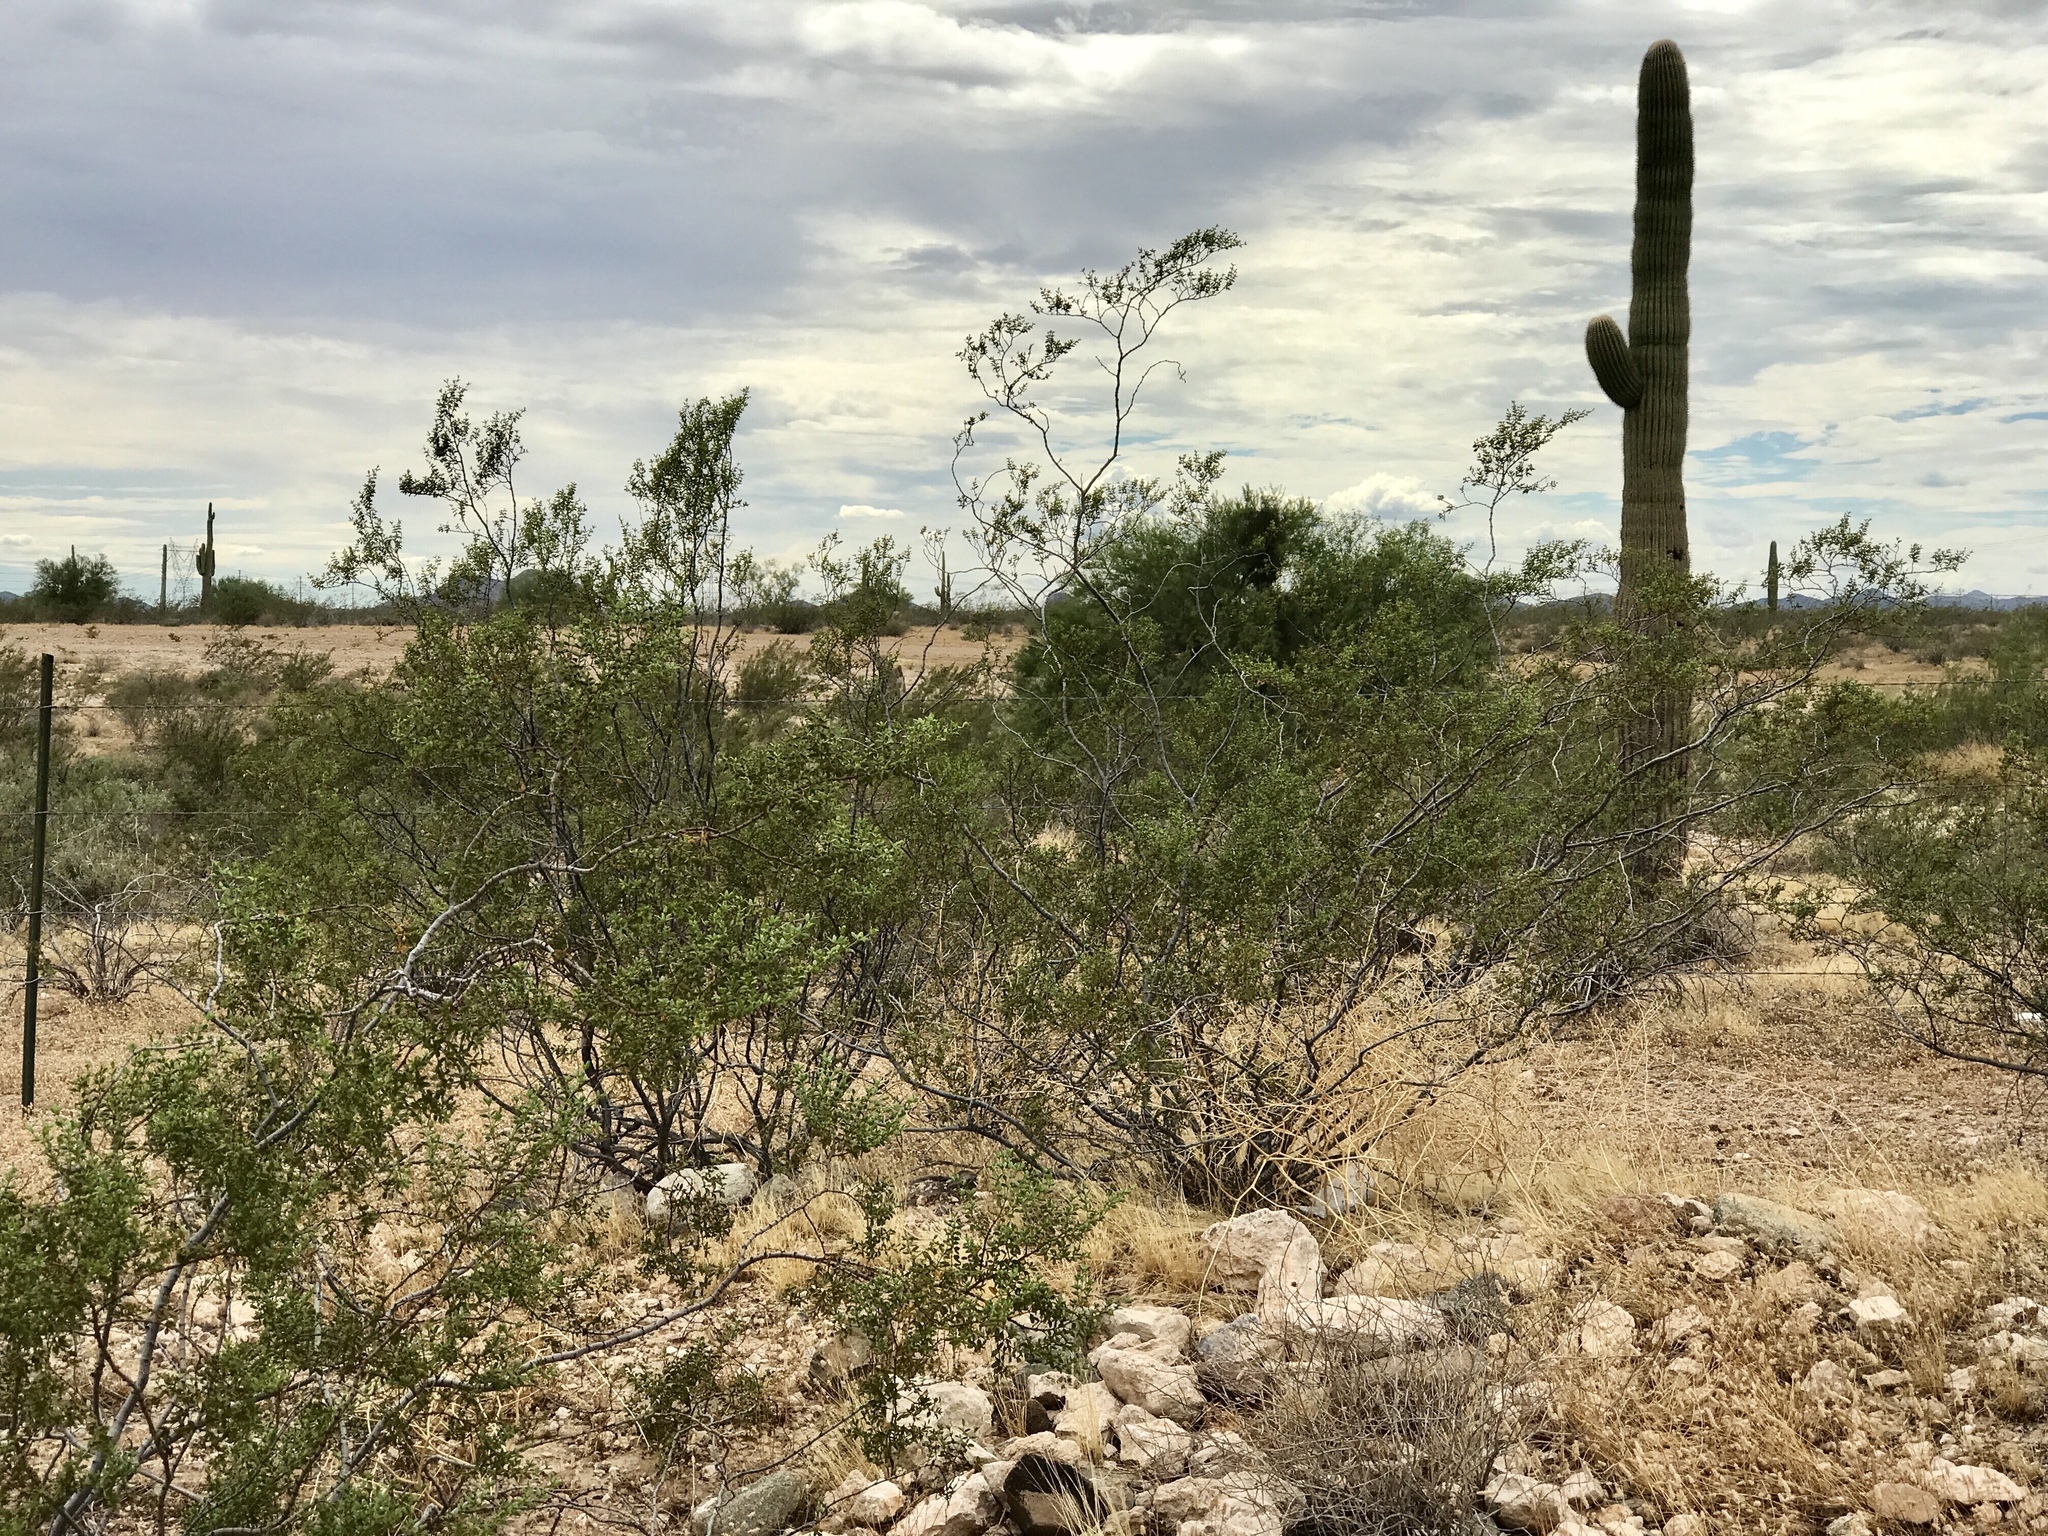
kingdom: Plantae
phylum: Tracheophyta
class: Magnoliopsida
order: Zygophyllales
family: Zygophyllaceae
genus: Larrea
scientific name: Larrea tridentata
